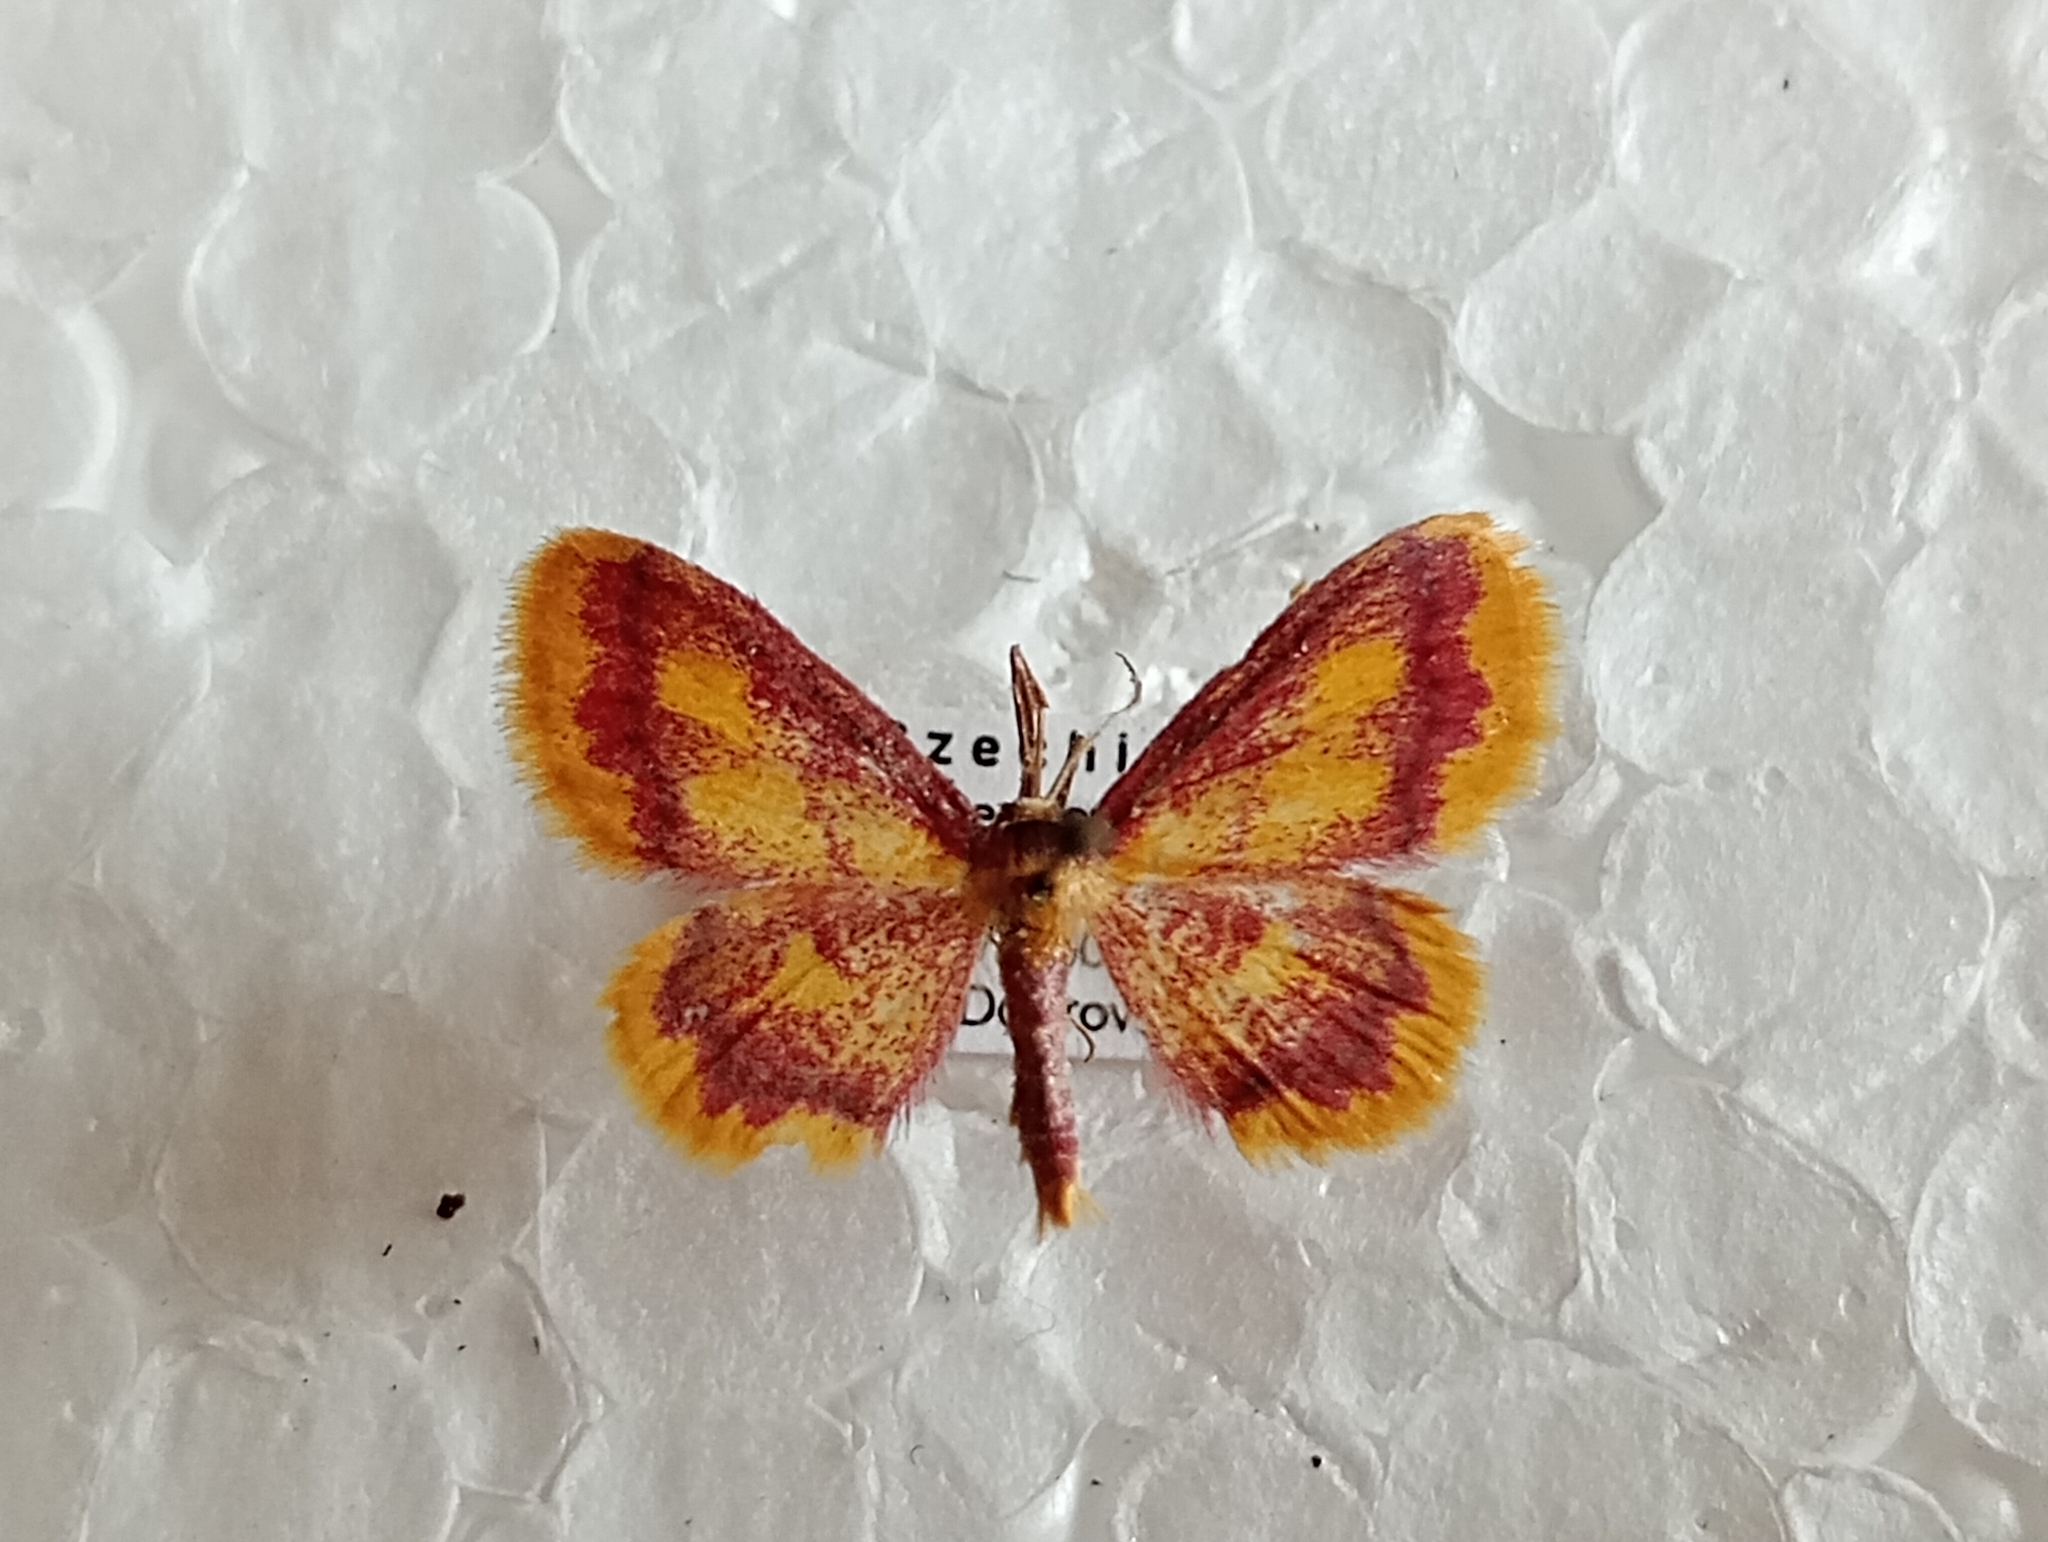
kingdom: Animalia
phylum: Arthropoda
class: Insecta
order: Lepidoptera
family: Geometridae
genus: Idaea
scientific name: Idaea muricata
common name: Purple-bordered gold
